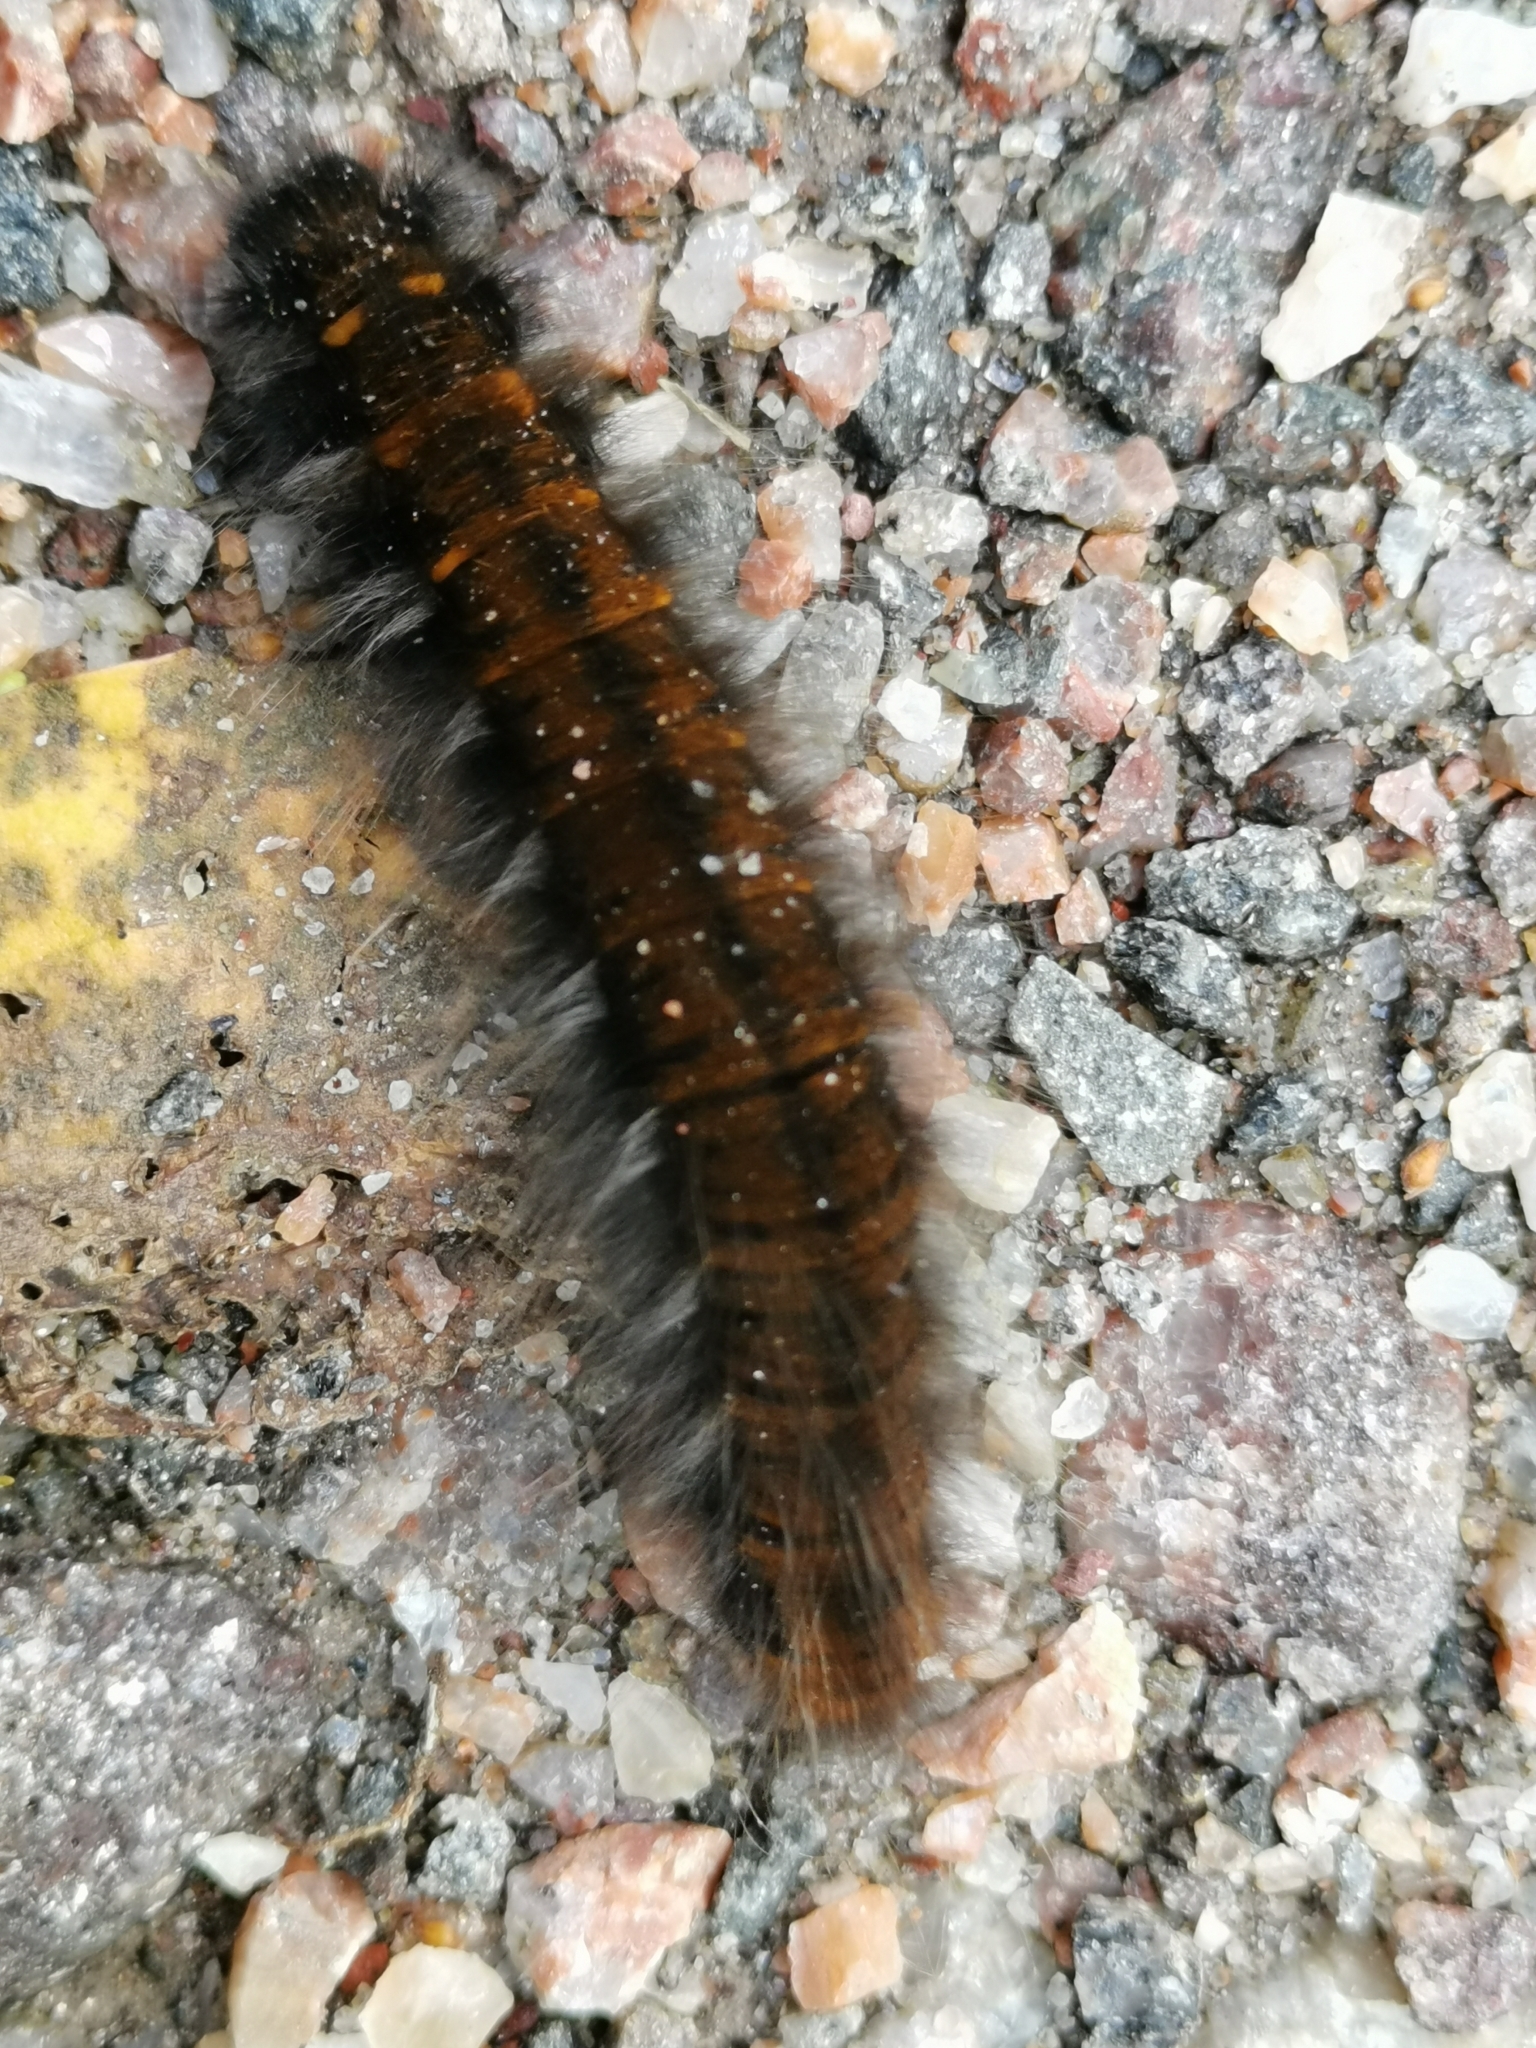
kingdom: Animalia
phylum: Arthropoda
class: Insecta
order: Lepidoptera
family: Lasiocampidae
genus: Macrothylacia
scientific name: Macrothylacia rubi
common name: Fox moth
